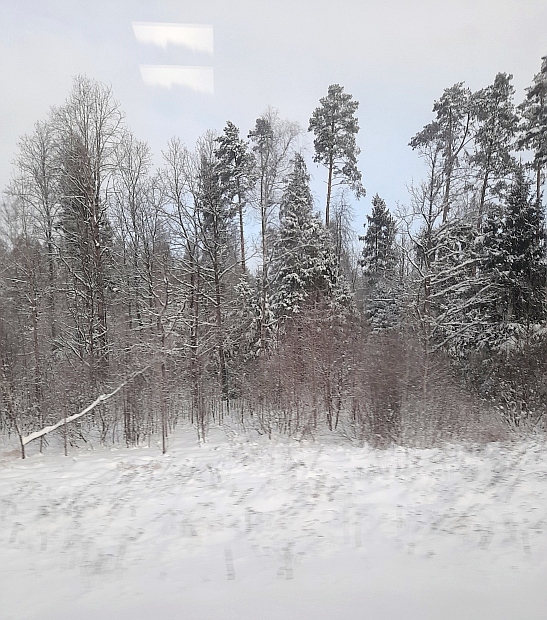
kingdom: Plantae
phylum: Tracheophyta
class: Pinopsida
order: Pinales
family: Pinaceae
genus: Picea
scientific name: Picea abies
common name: Norway spruce
